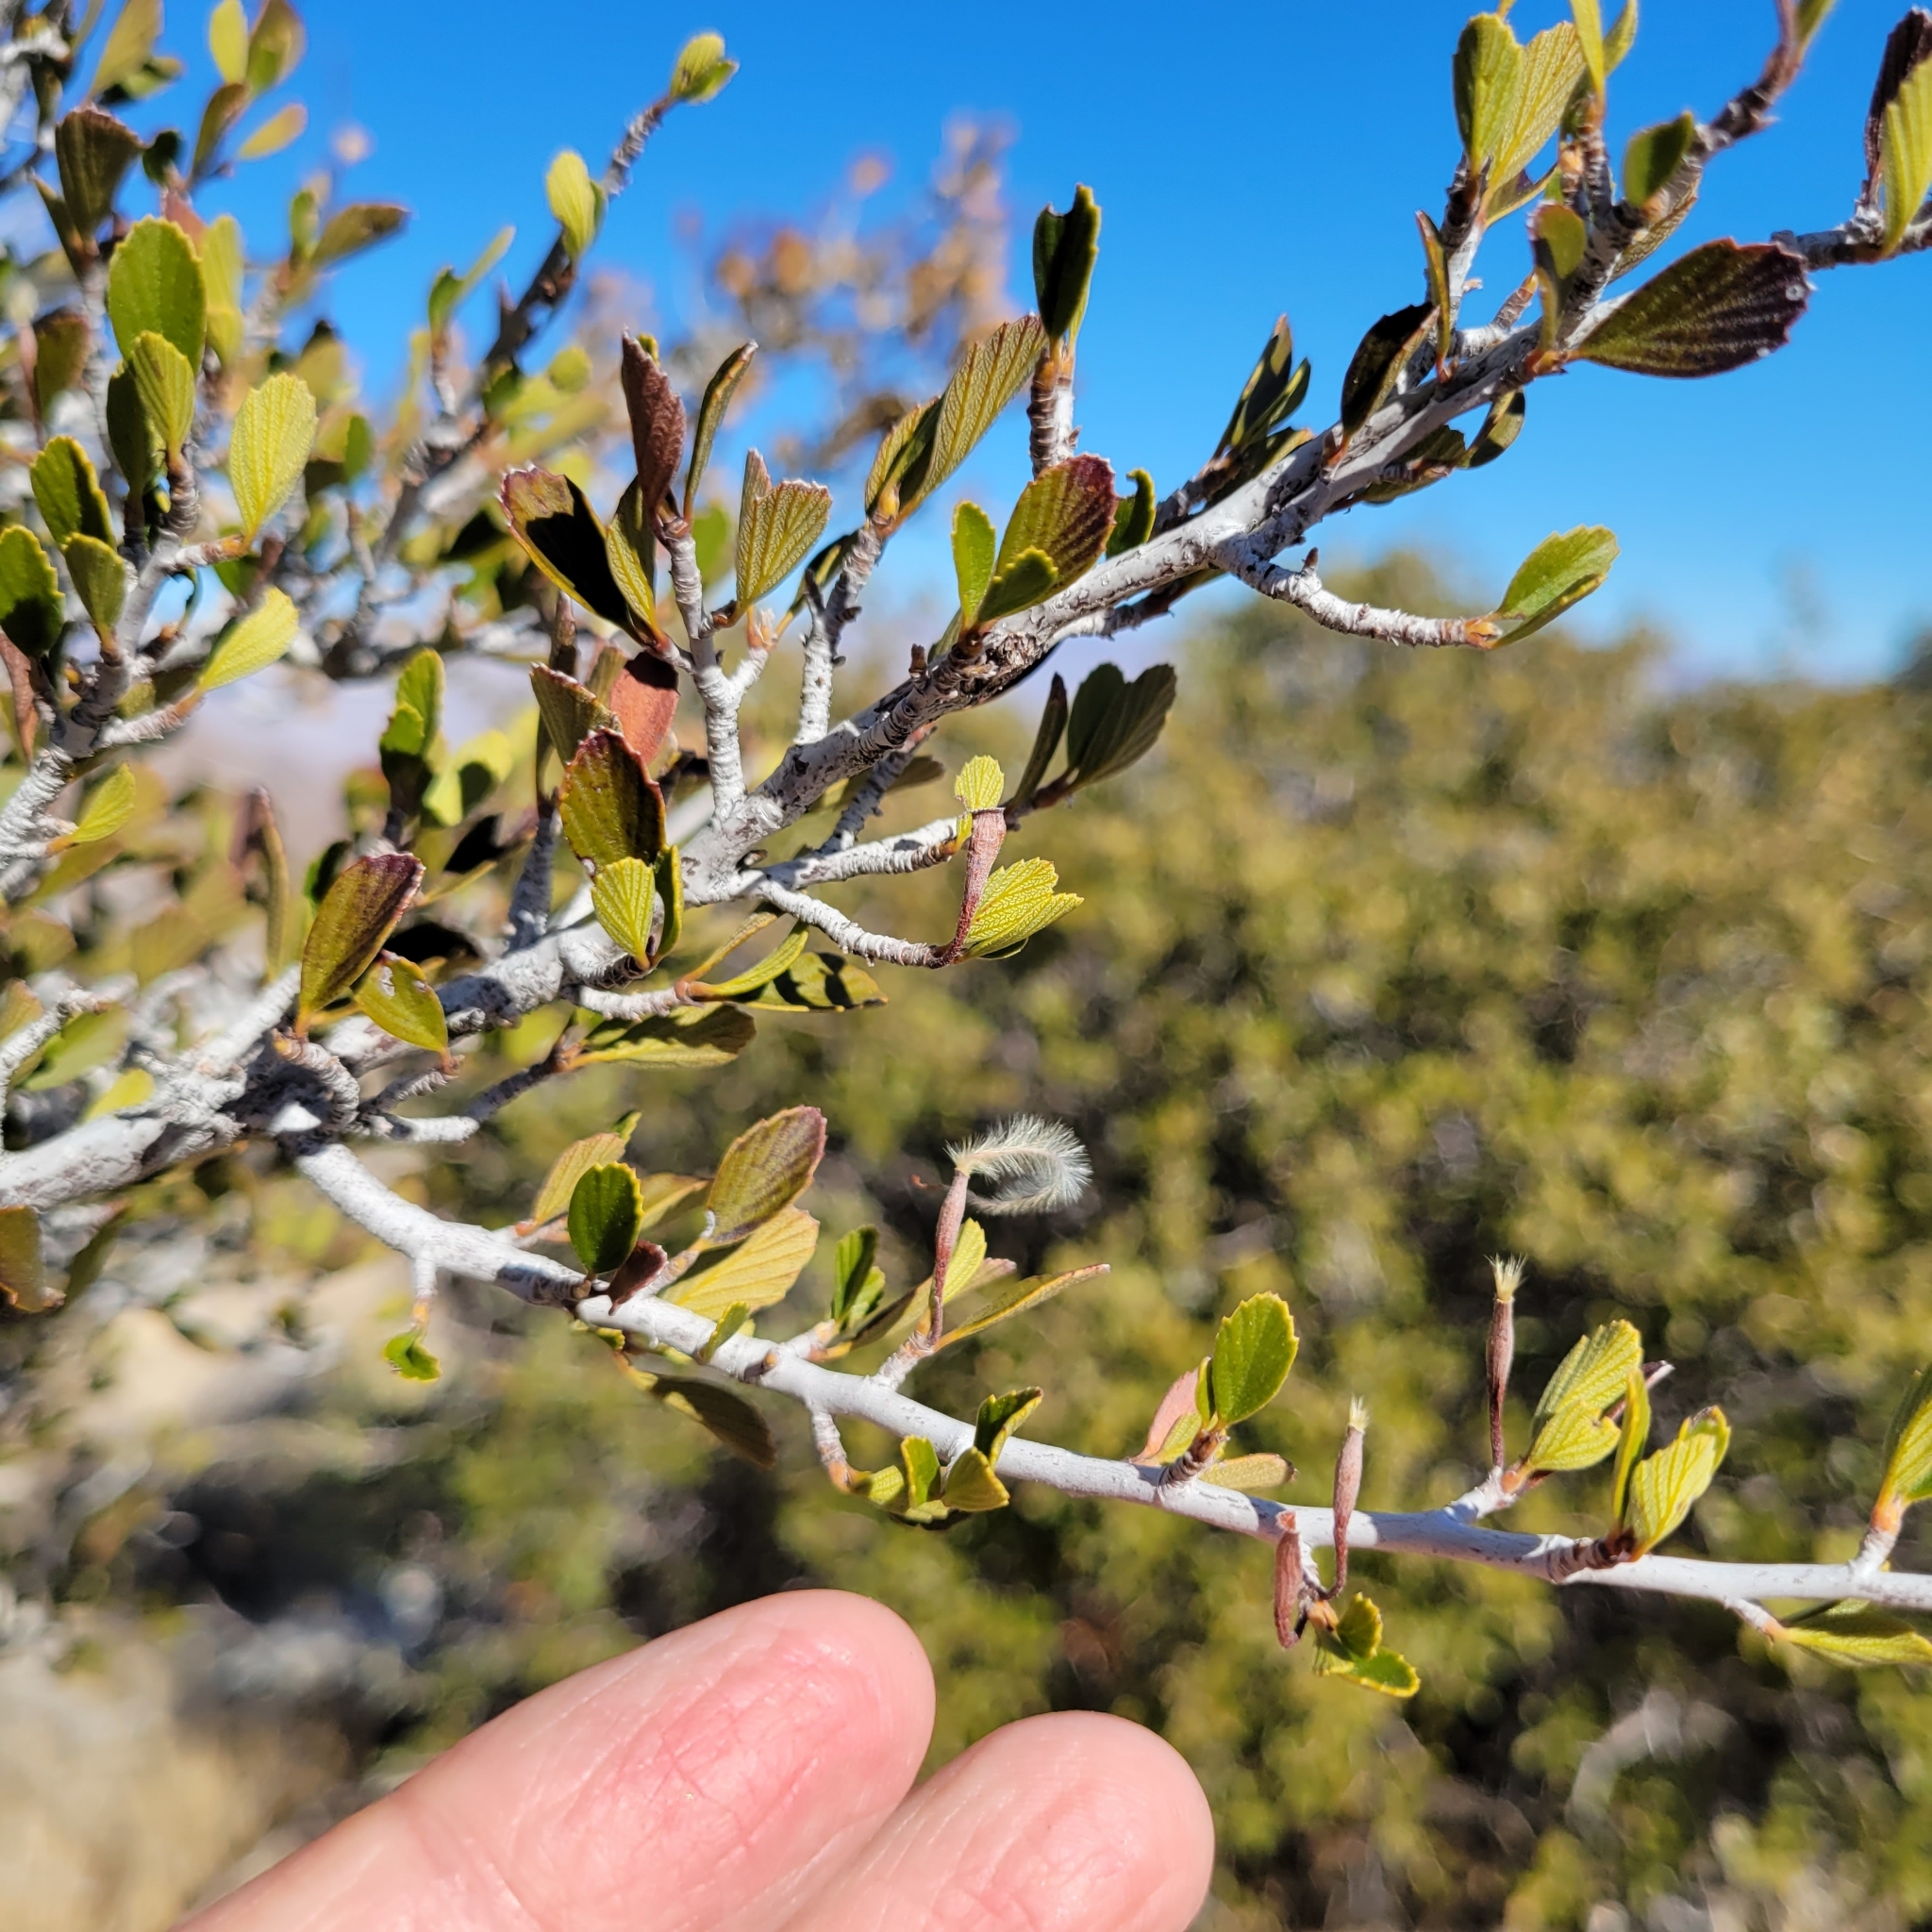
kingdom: Plantae
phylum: Tracheophyta
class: Magnoliopsida
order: Rosales
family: Rosaceae
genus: Cercocarpus
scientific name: Cercocarpus betuloides
